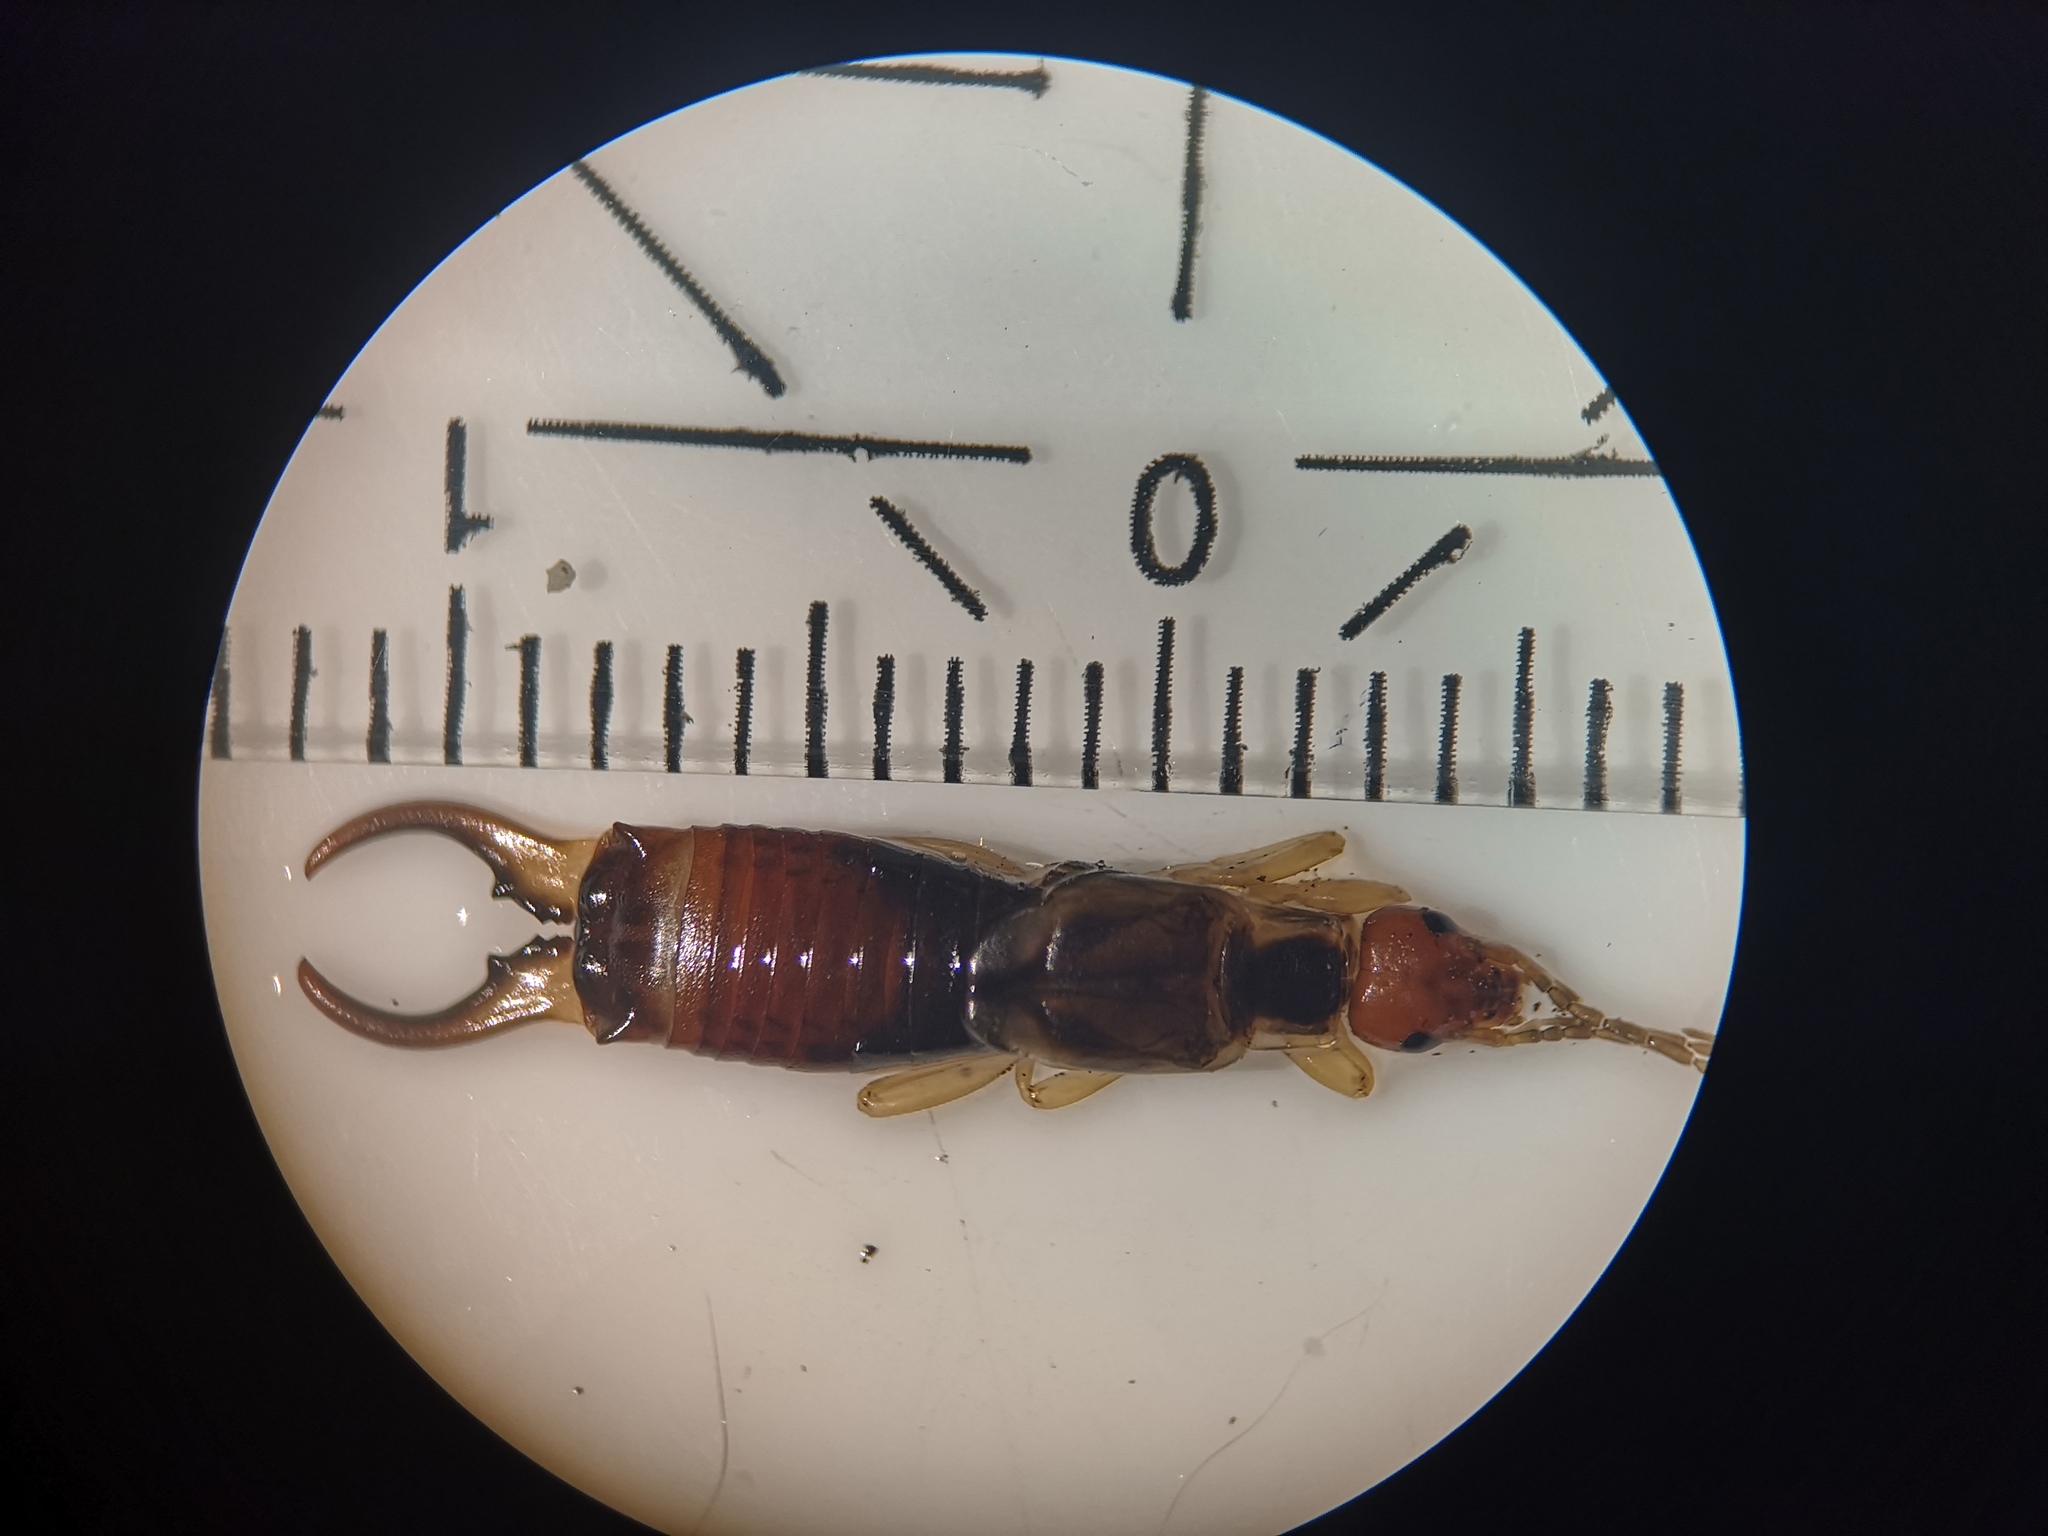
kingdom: Animalia
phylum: Arthropoda
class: Insecta
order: Dermaptera
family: Forficulidae
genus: Forficula
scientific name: Forficula
